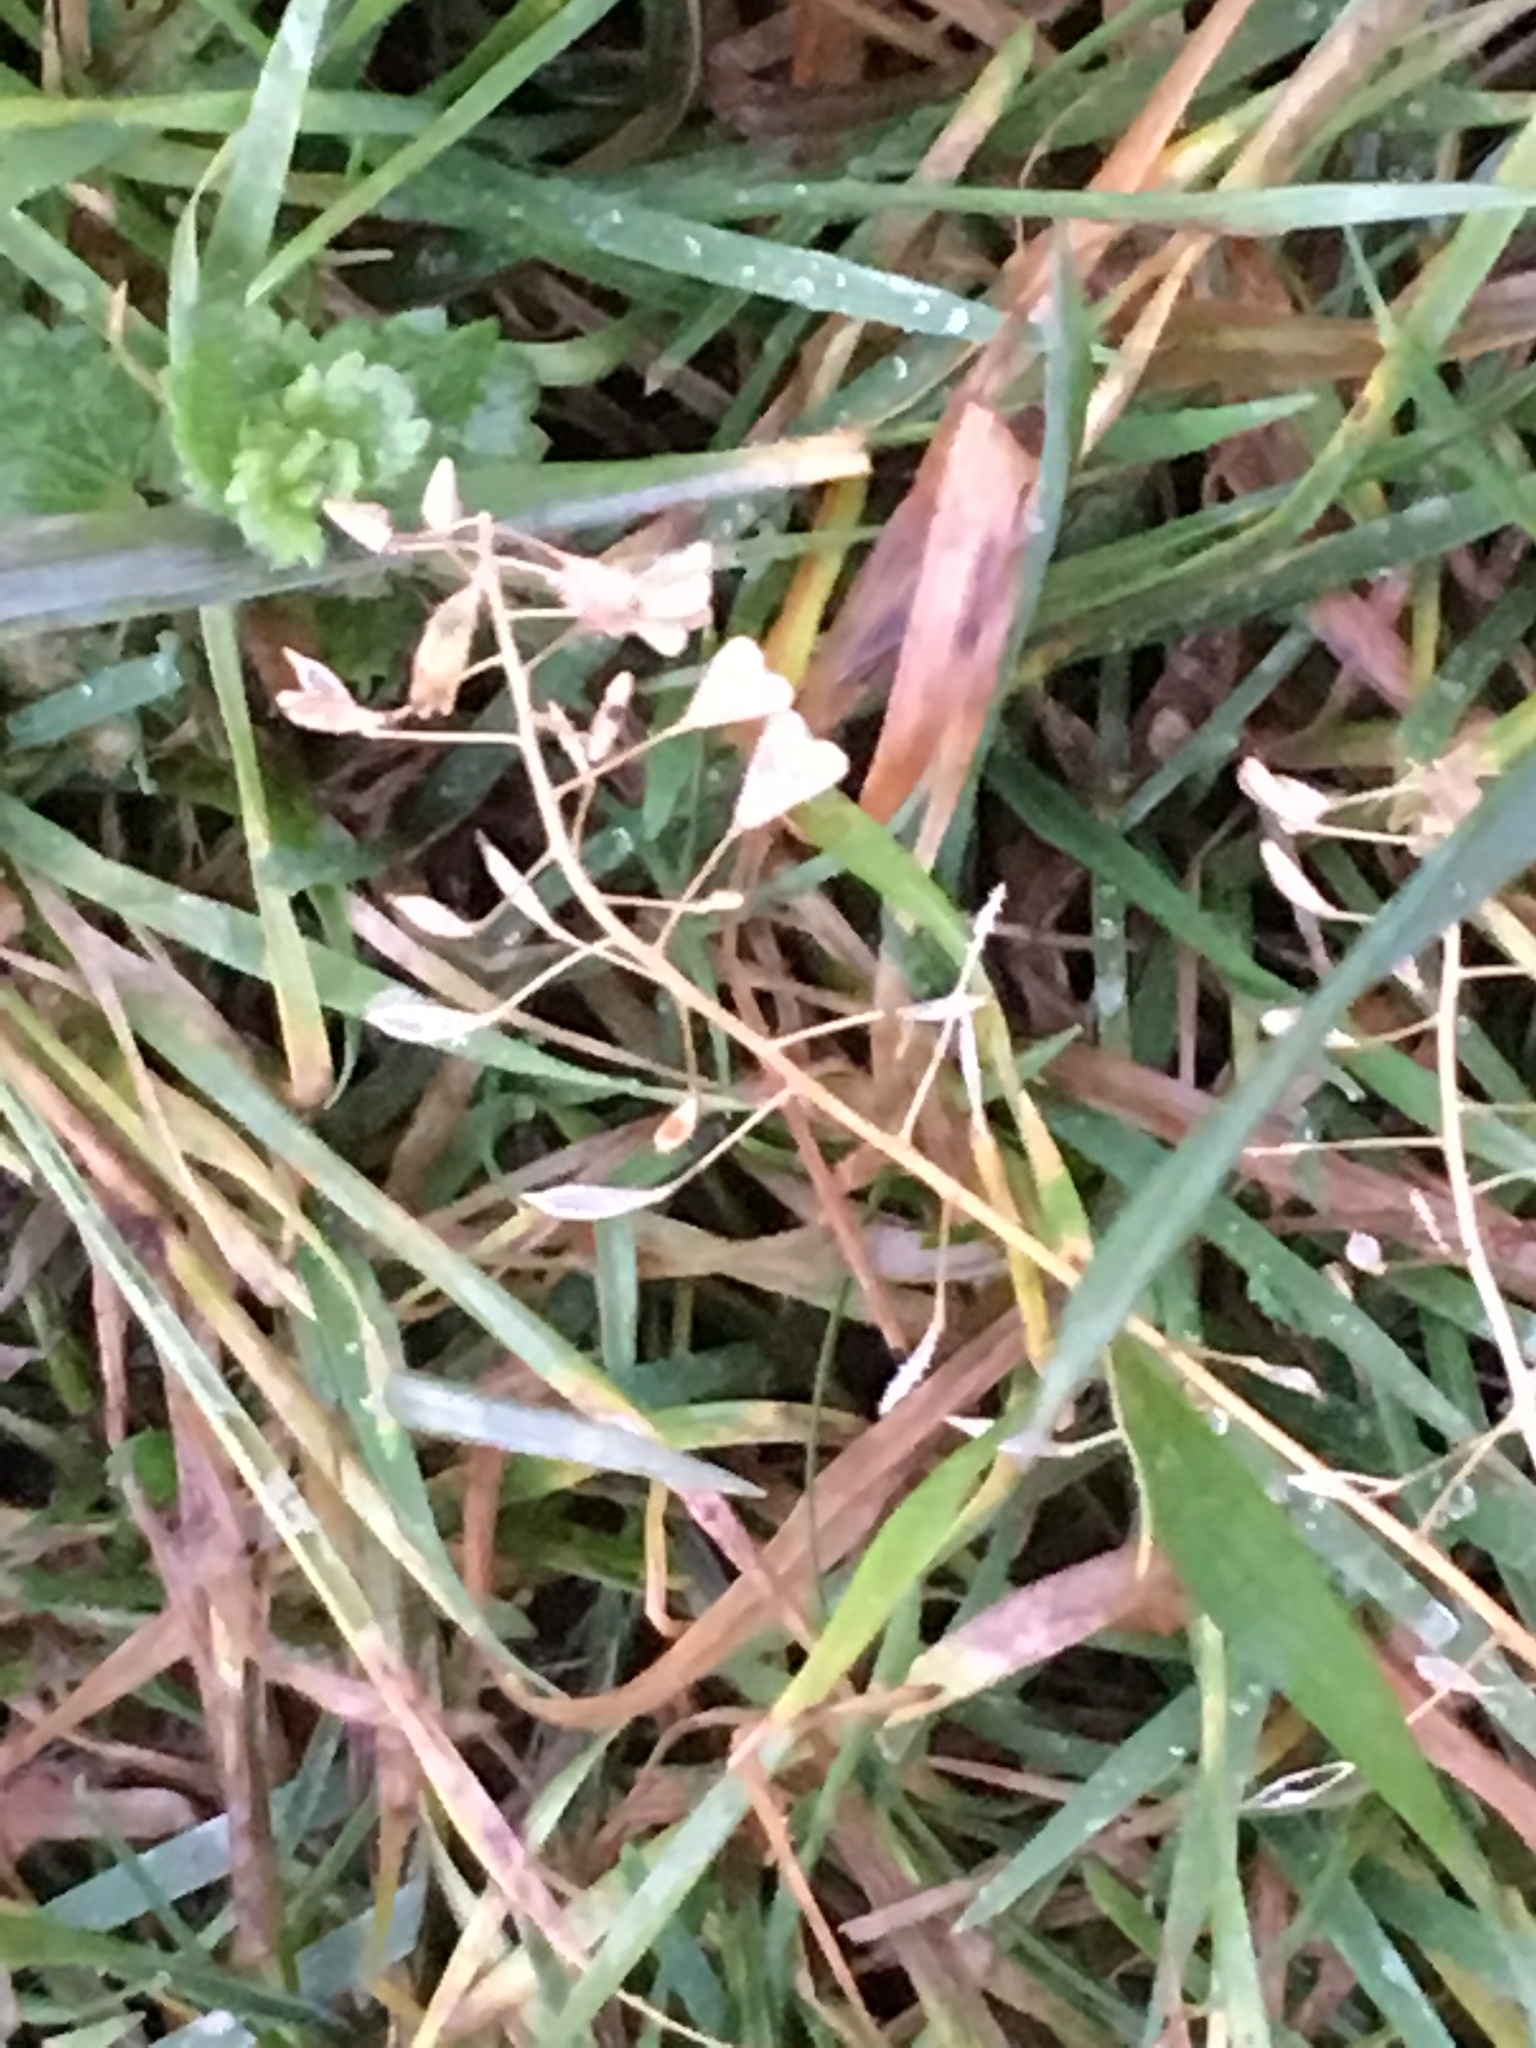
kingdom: Plantae
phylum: Tracheophyta
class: Magnoliopsida
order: Brassicales
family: Brassicaceae
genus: Capsella
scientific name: Capsella bursa-pastoris
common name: Shepherd's purse
